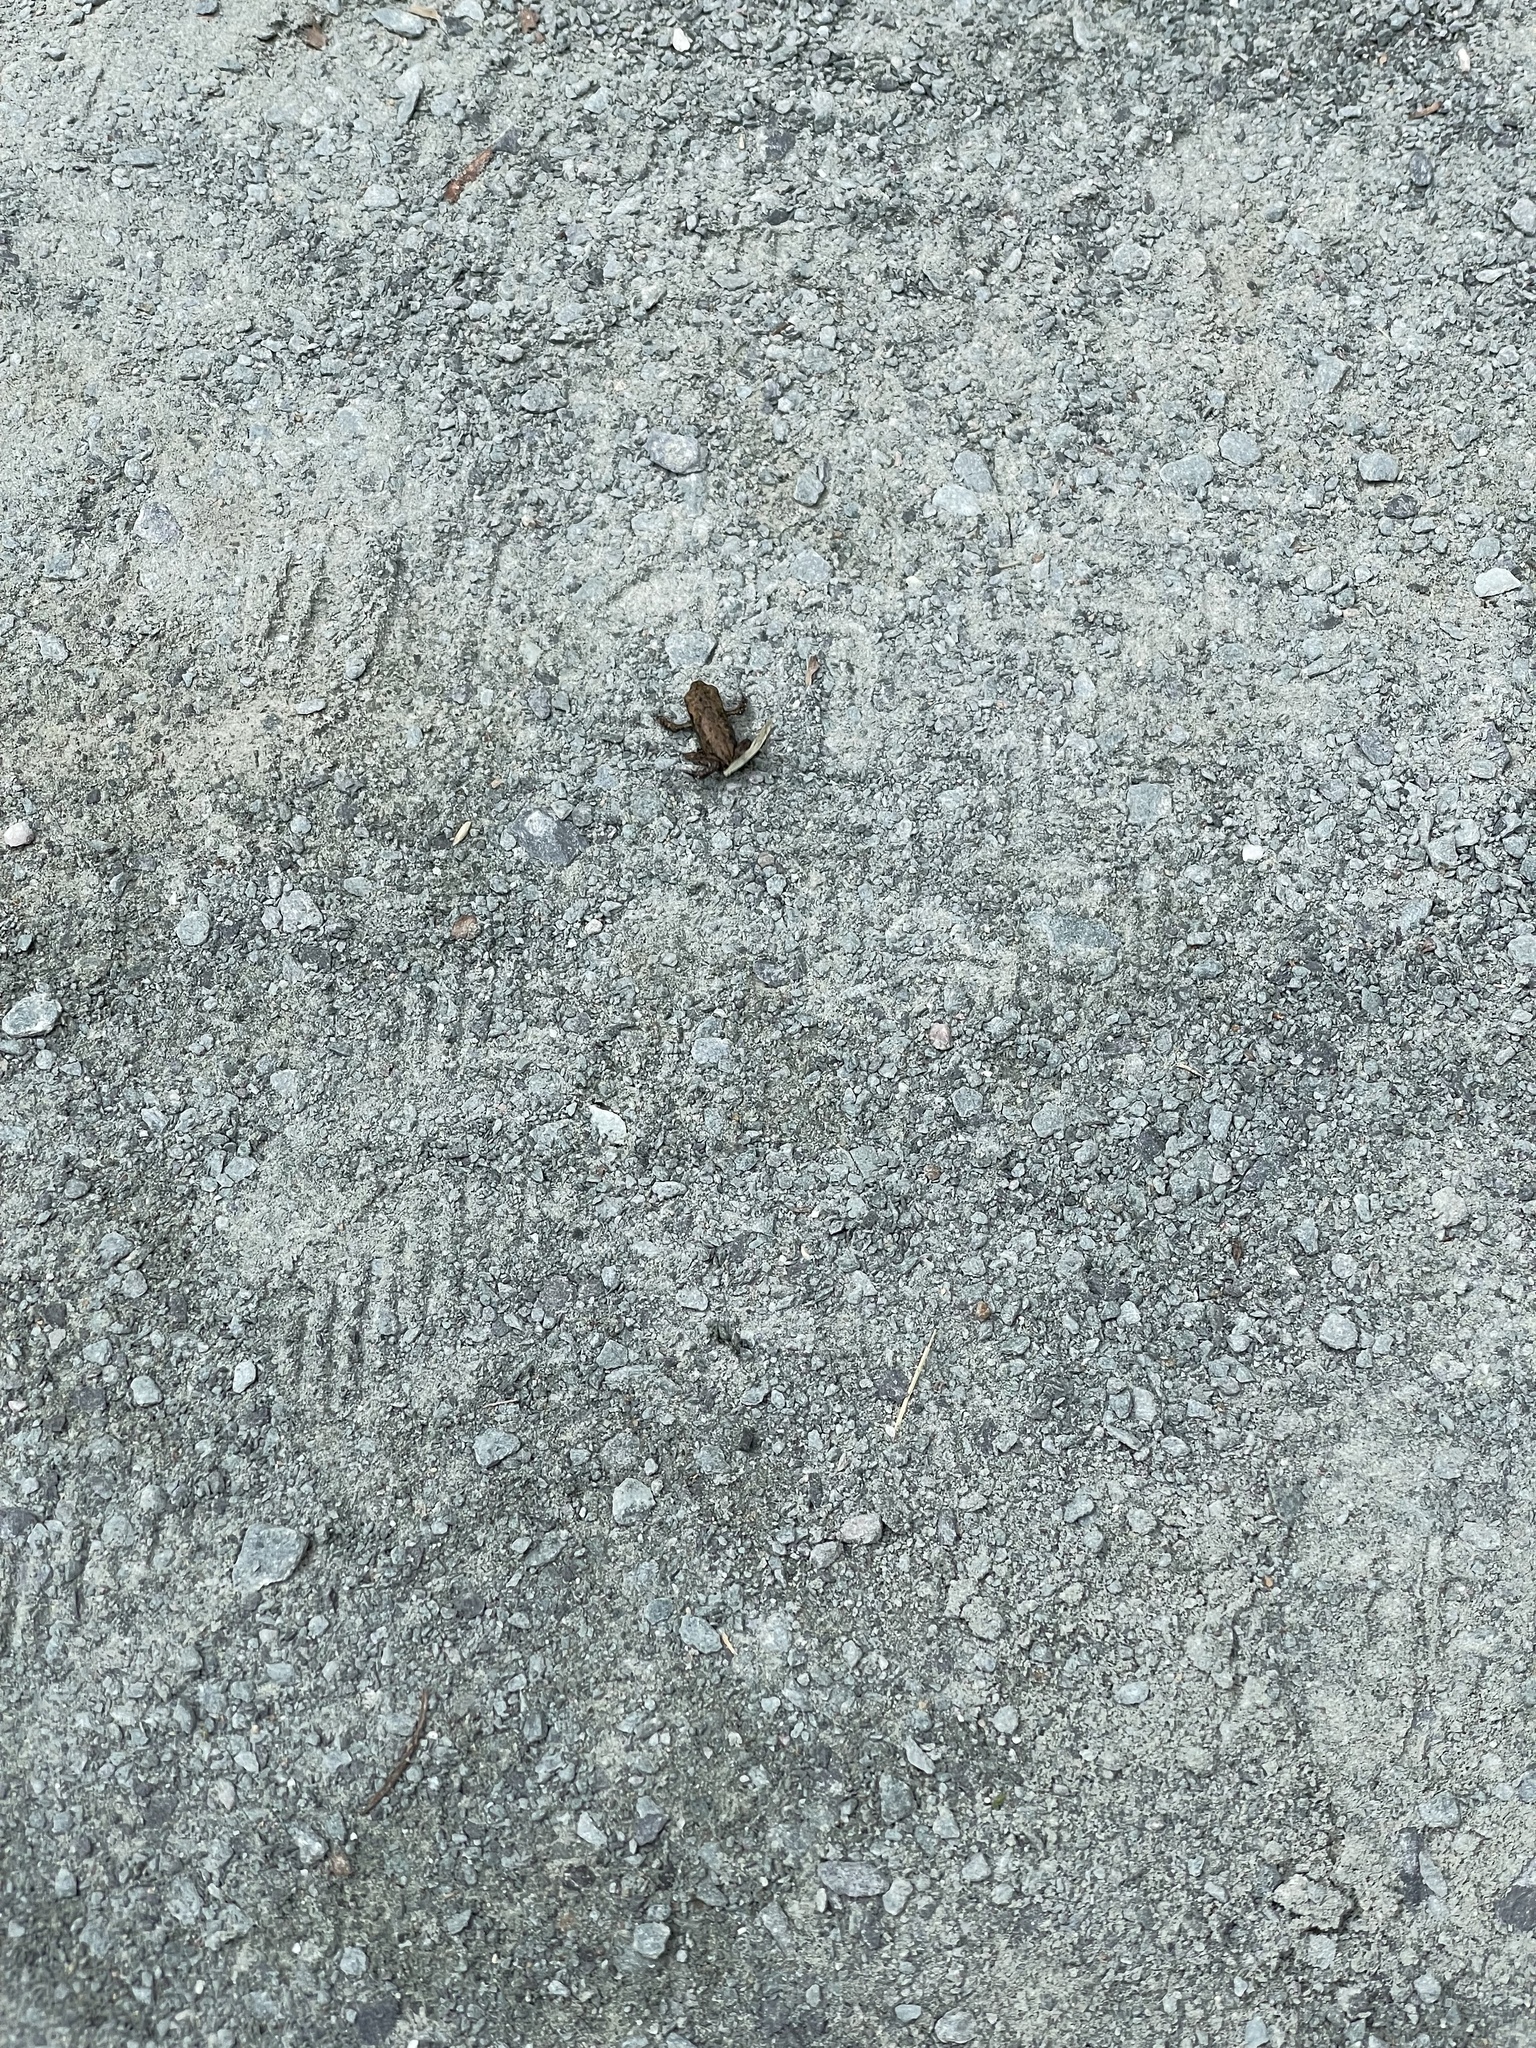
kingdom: Animalia
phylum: Chordata
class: Amphibia
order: Anura
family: Bufonidae
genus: Bufo
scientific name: Bufo bufo
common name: Common toad
